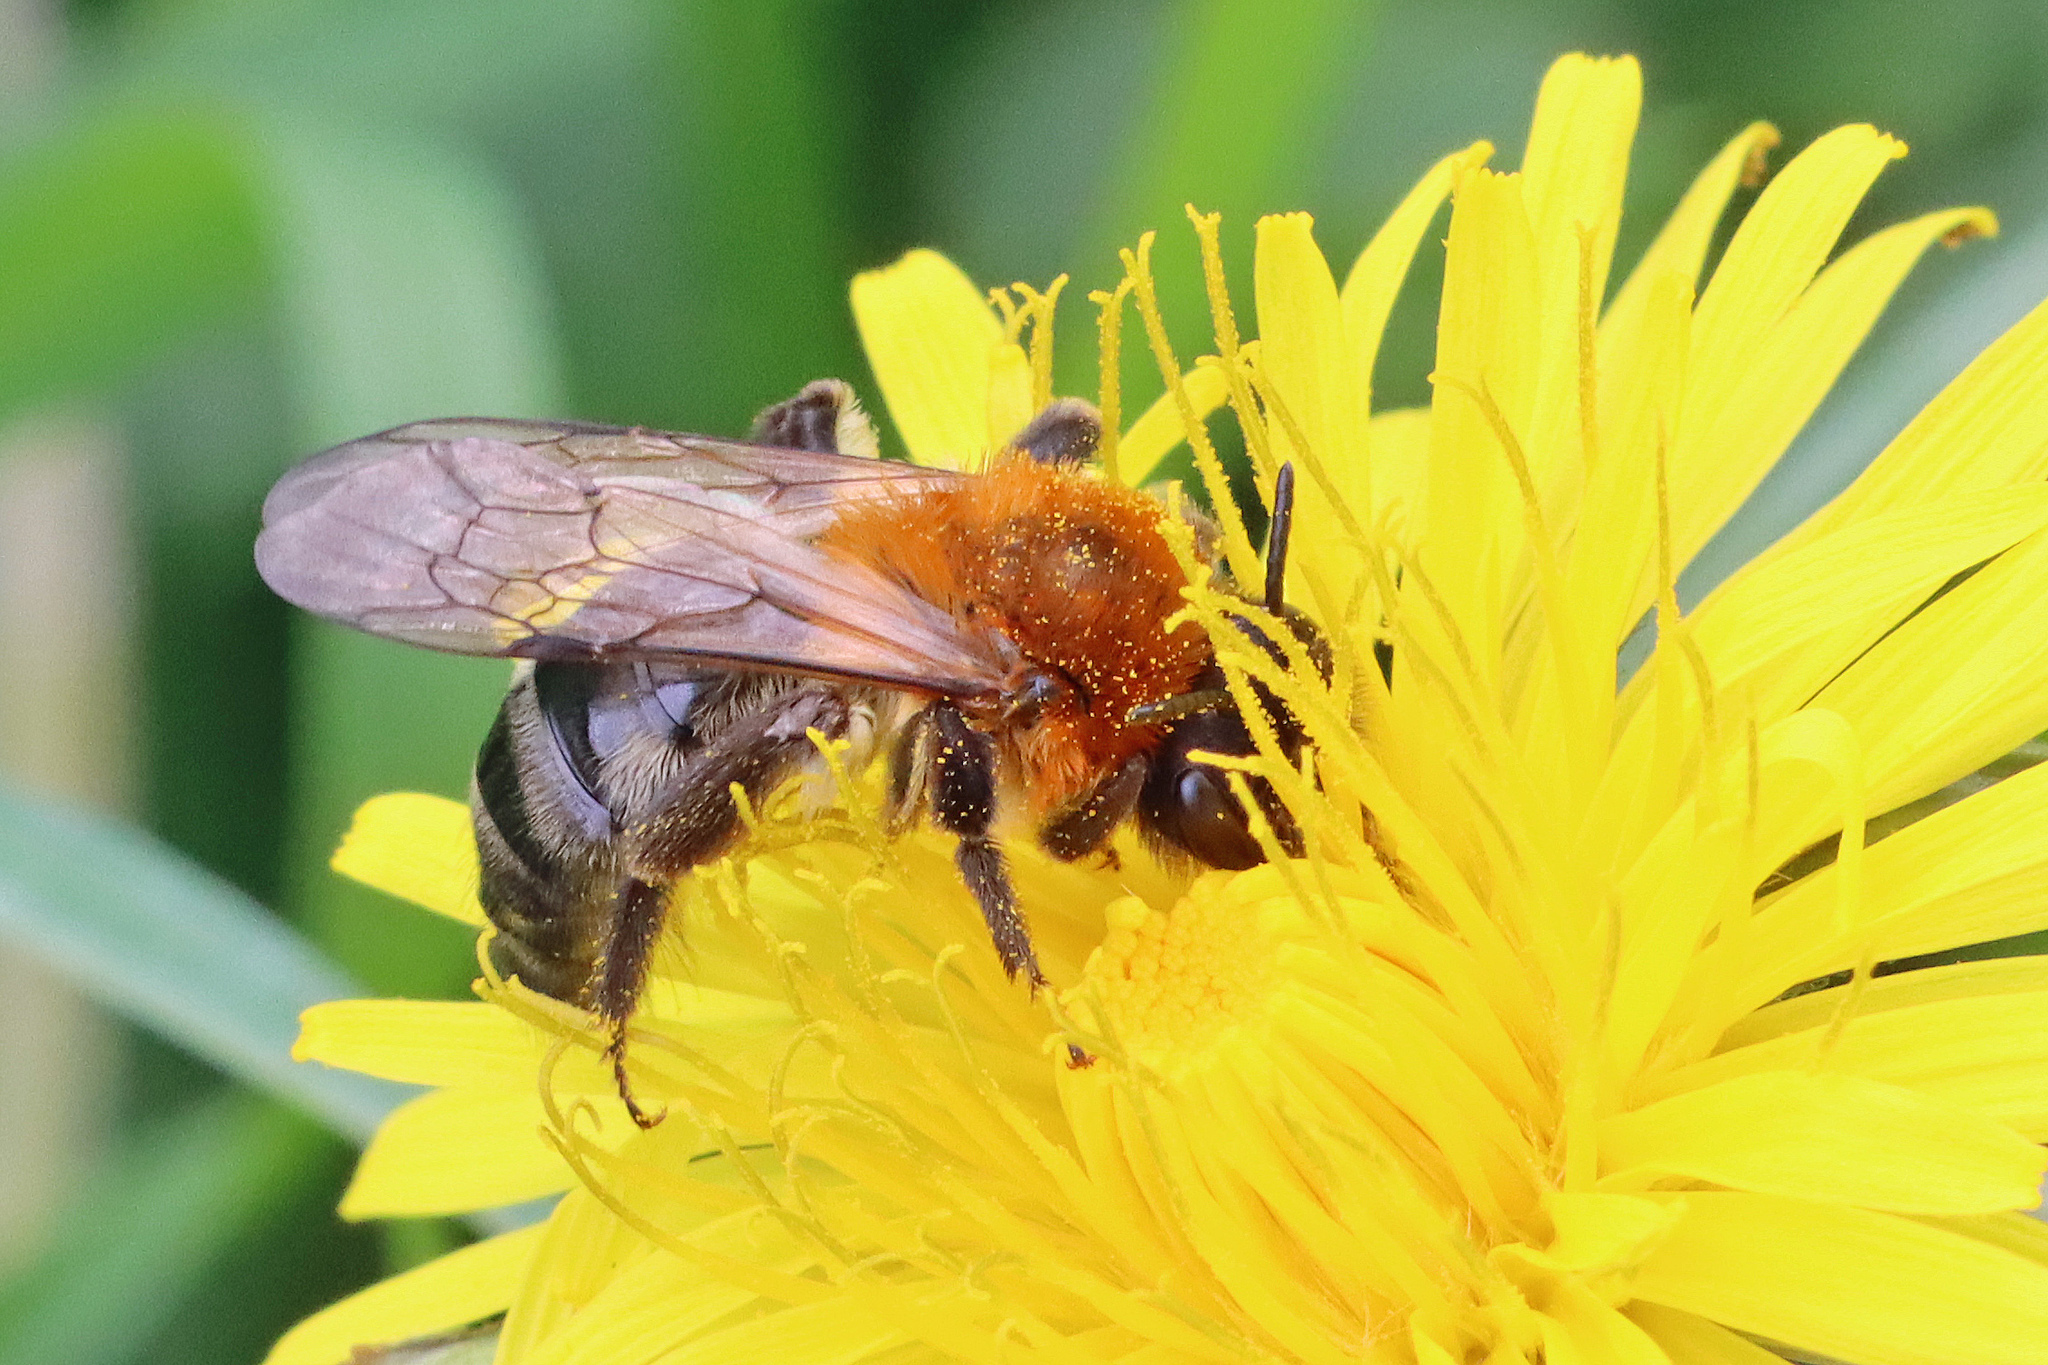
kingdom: Animalia
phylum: Arthropoda
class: Insecta
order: Hymenoptera
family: Andrenidae
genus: Andrena
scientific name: Andrena nitida
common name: Grey-patched mining bee
